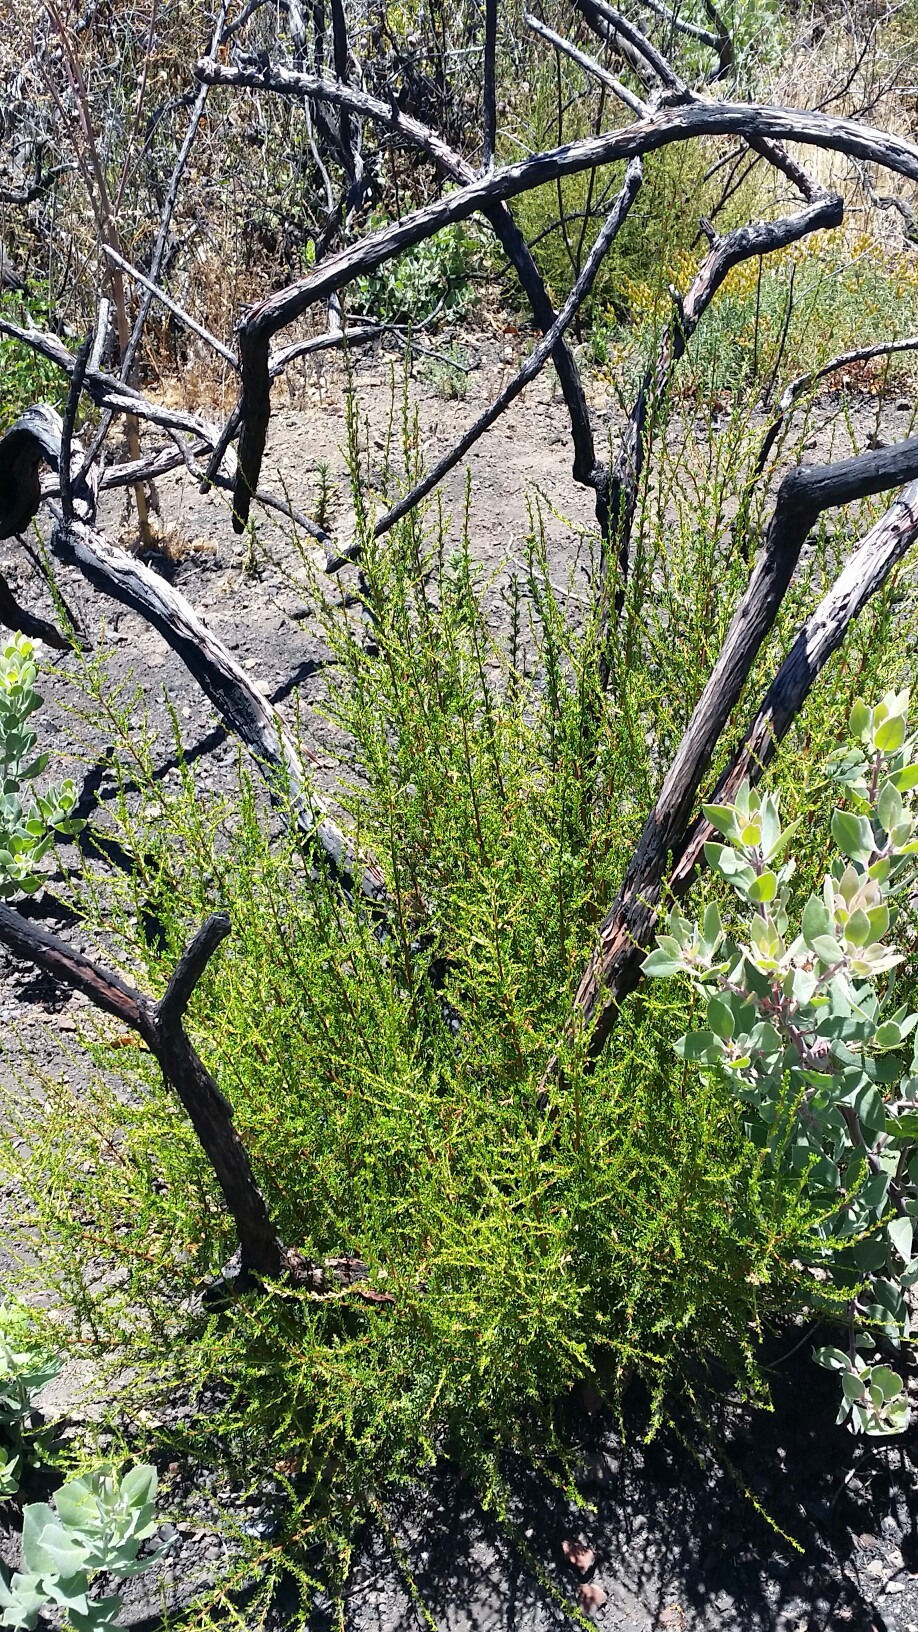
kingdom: Plantae
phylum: Tracheophyta
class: Magnoliopsida
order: Rosales
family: Rosaceae
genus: Adenostoma
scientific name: Adenostoma fasciculatum
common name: Chamise
